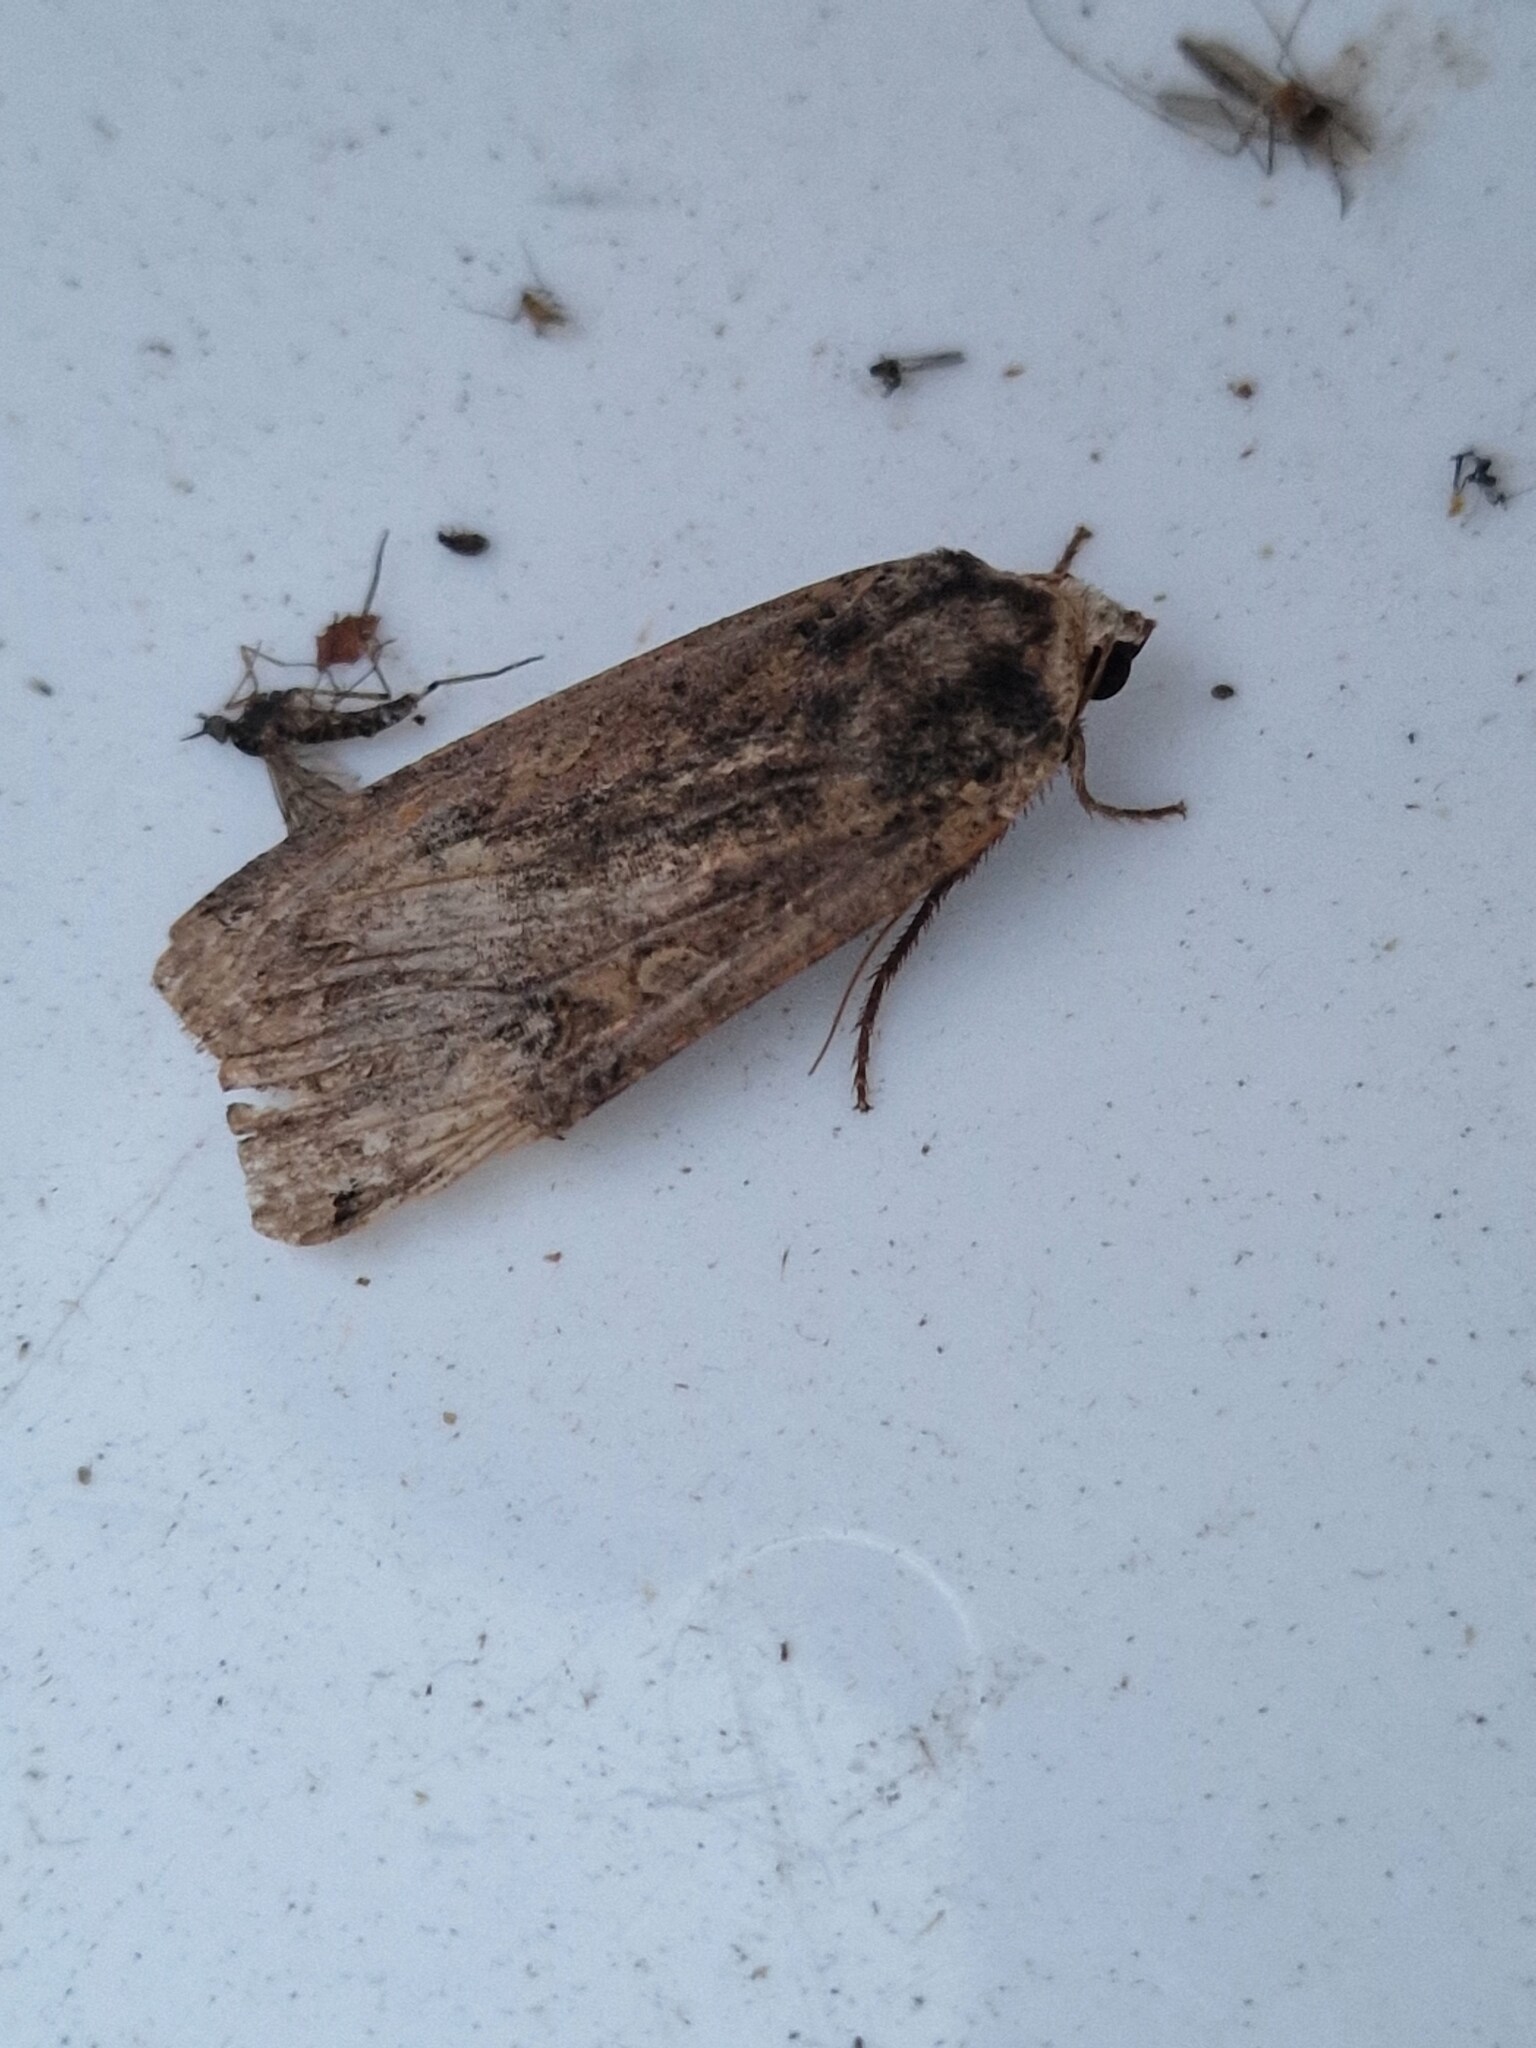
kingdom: Animalia
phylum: Arthropoda
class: Insecta
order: Lepidoptera
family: Noctuidae
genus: Noctua
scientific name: Noctua pronuba
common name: Large yellow underwing
